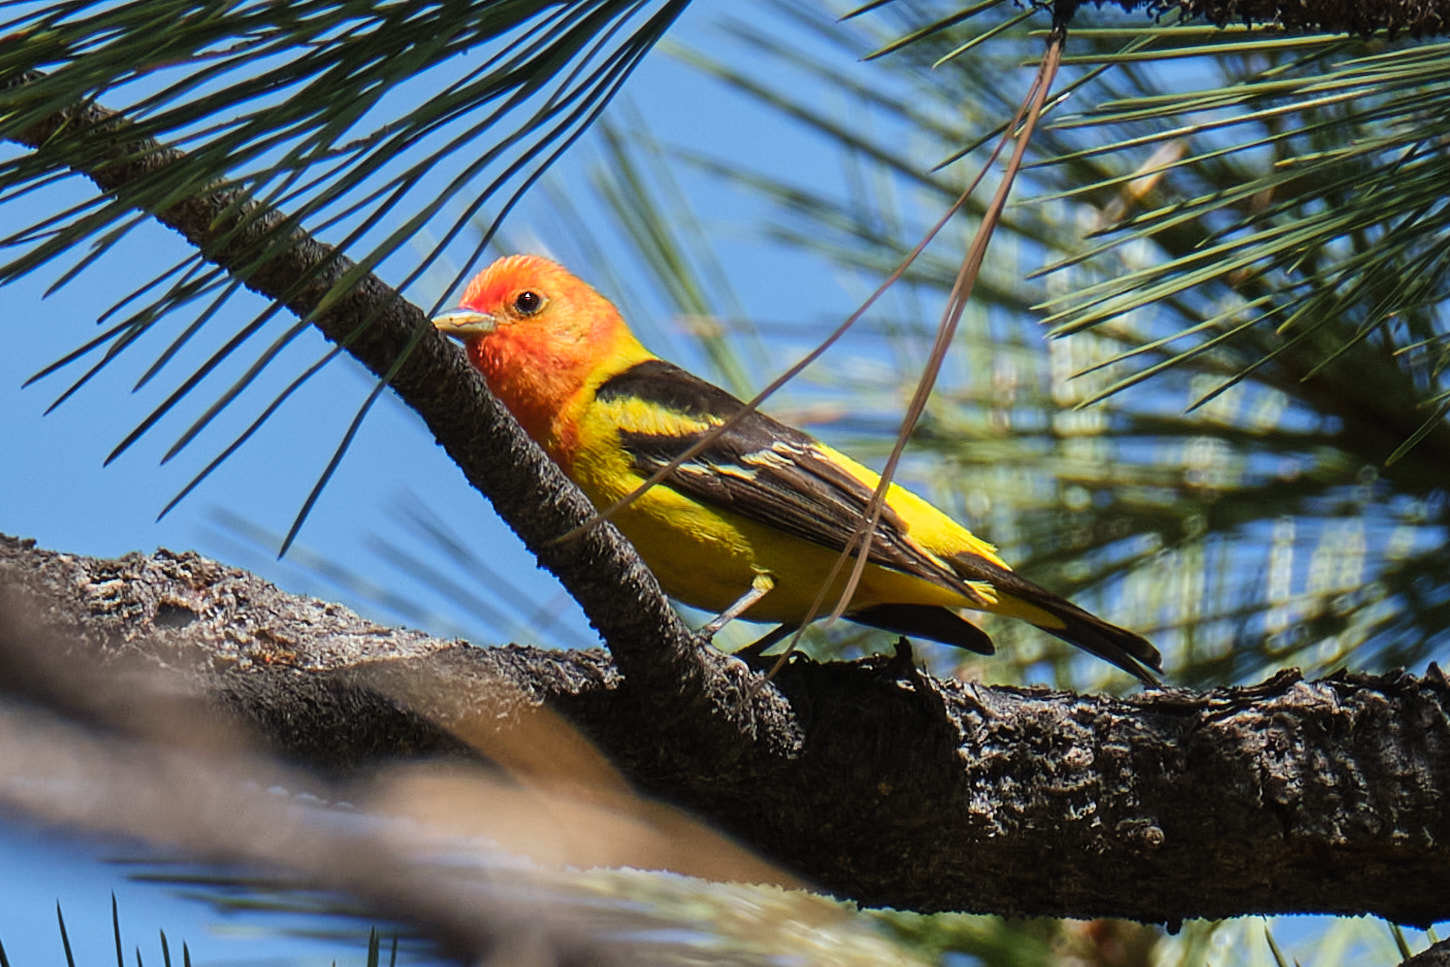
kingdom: Animalia
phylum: Chordata
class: Aves
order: Passeriformes
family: Cardinalidae
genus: Piranga
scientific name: Piranga ludoviciana
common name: Western tanager
